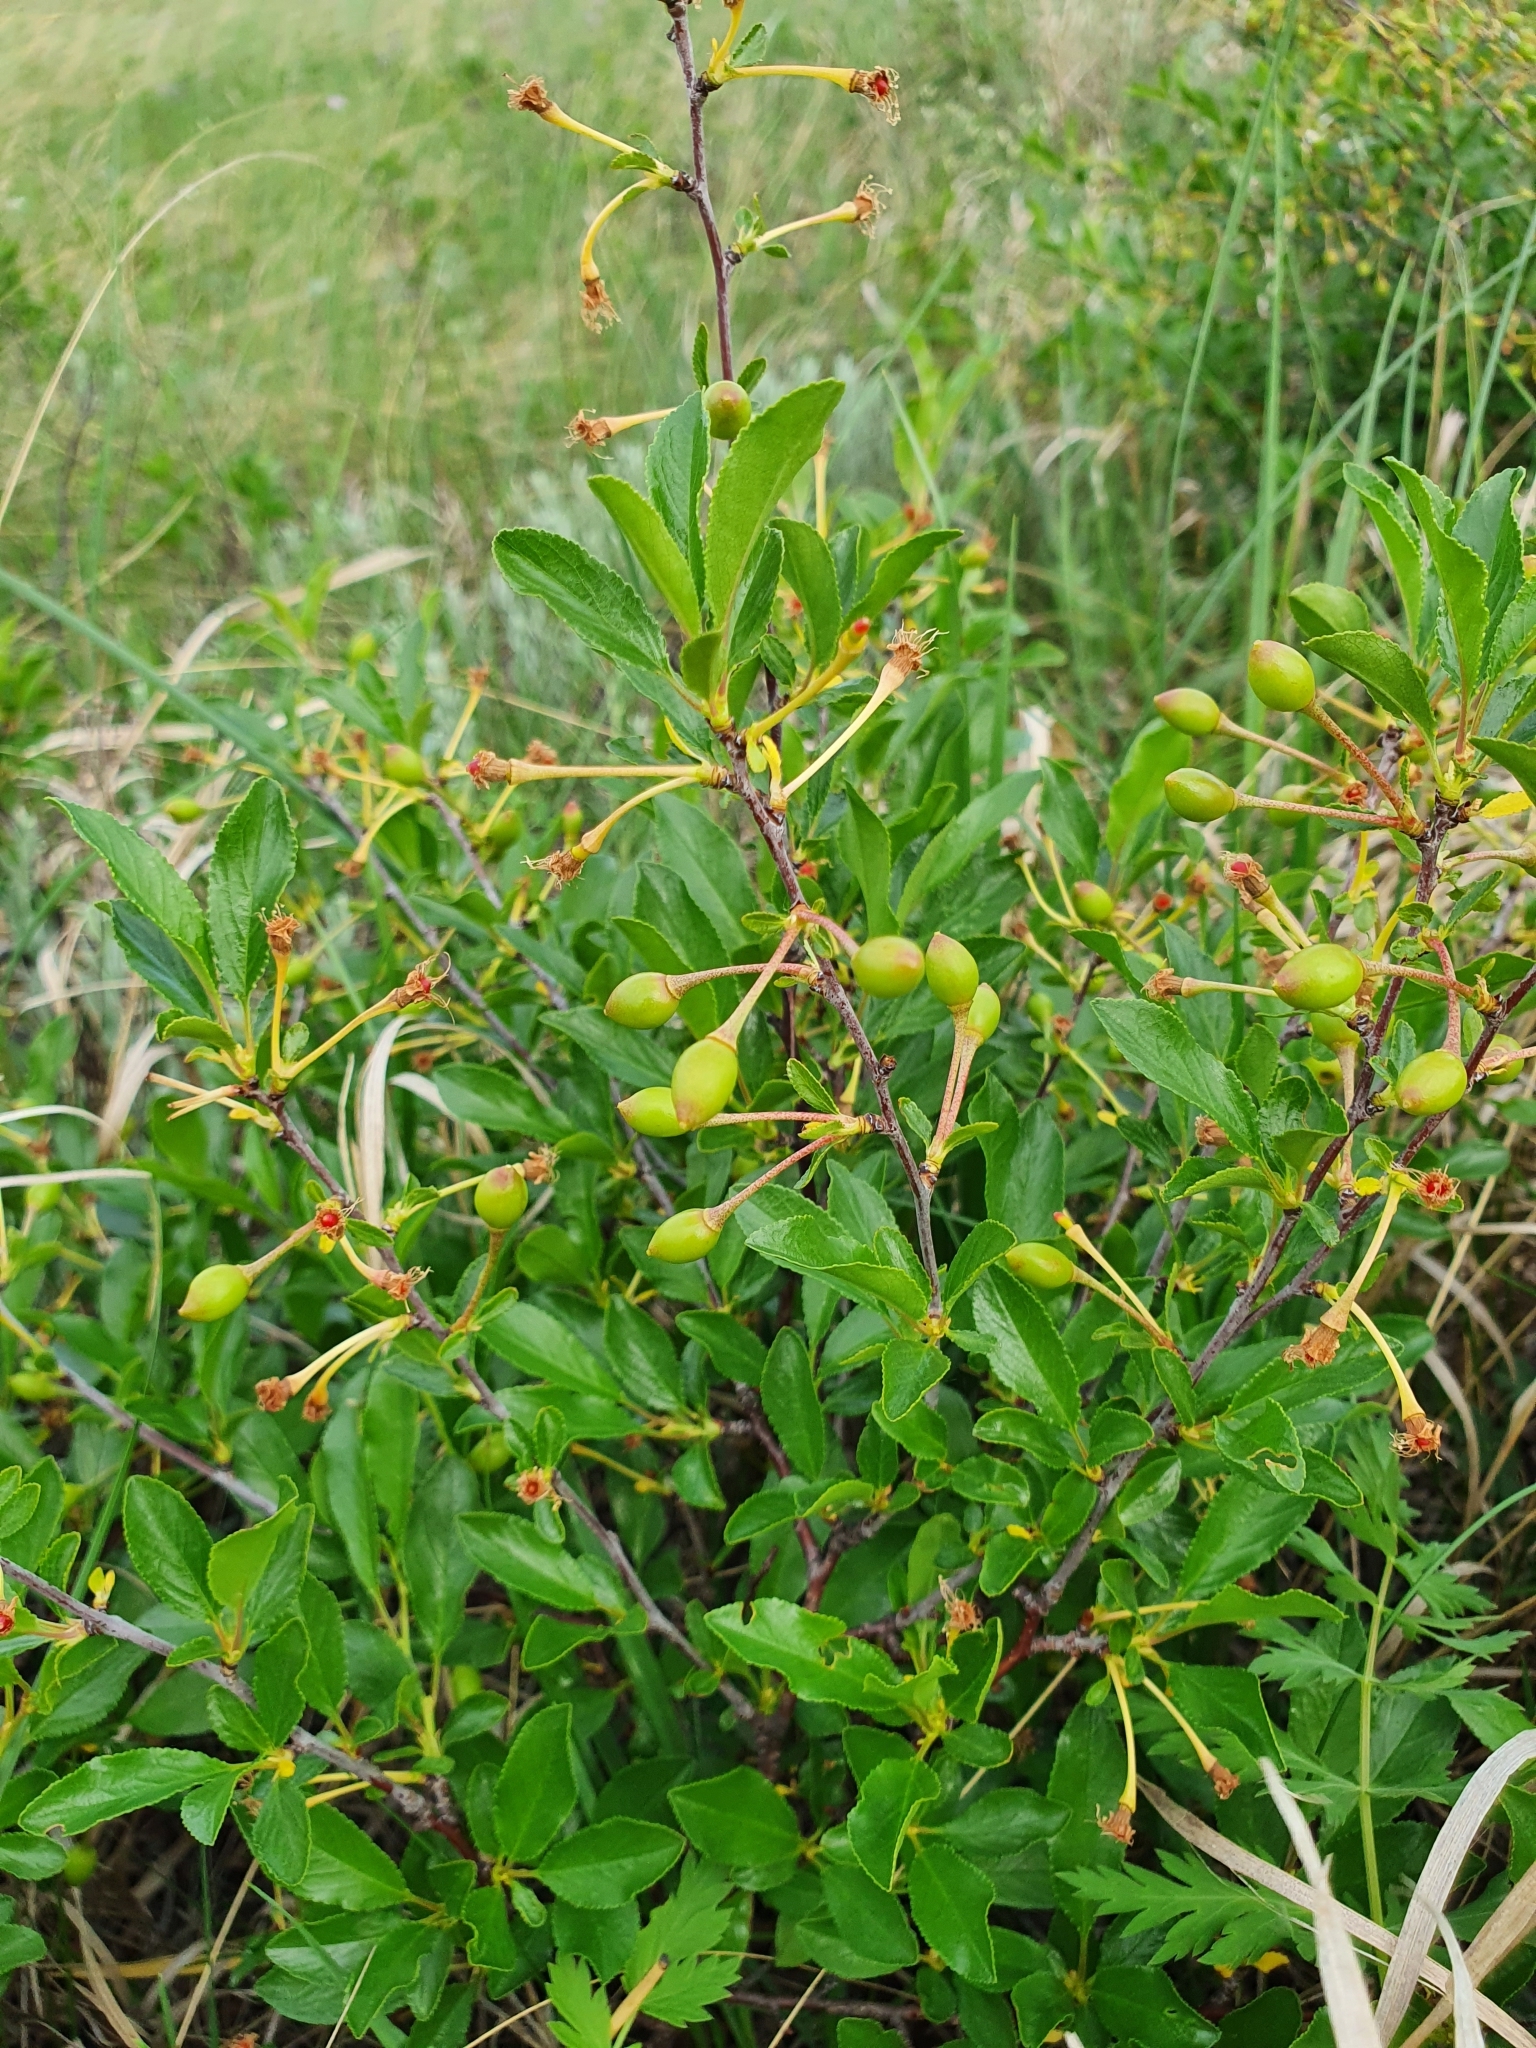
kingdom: Plantae
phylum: Tracheophyta
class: Magnoliopsida
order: Rosales
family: Rosaceae
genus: Prunus
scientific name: Prunus fruticosa
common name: European dwarf cherry
